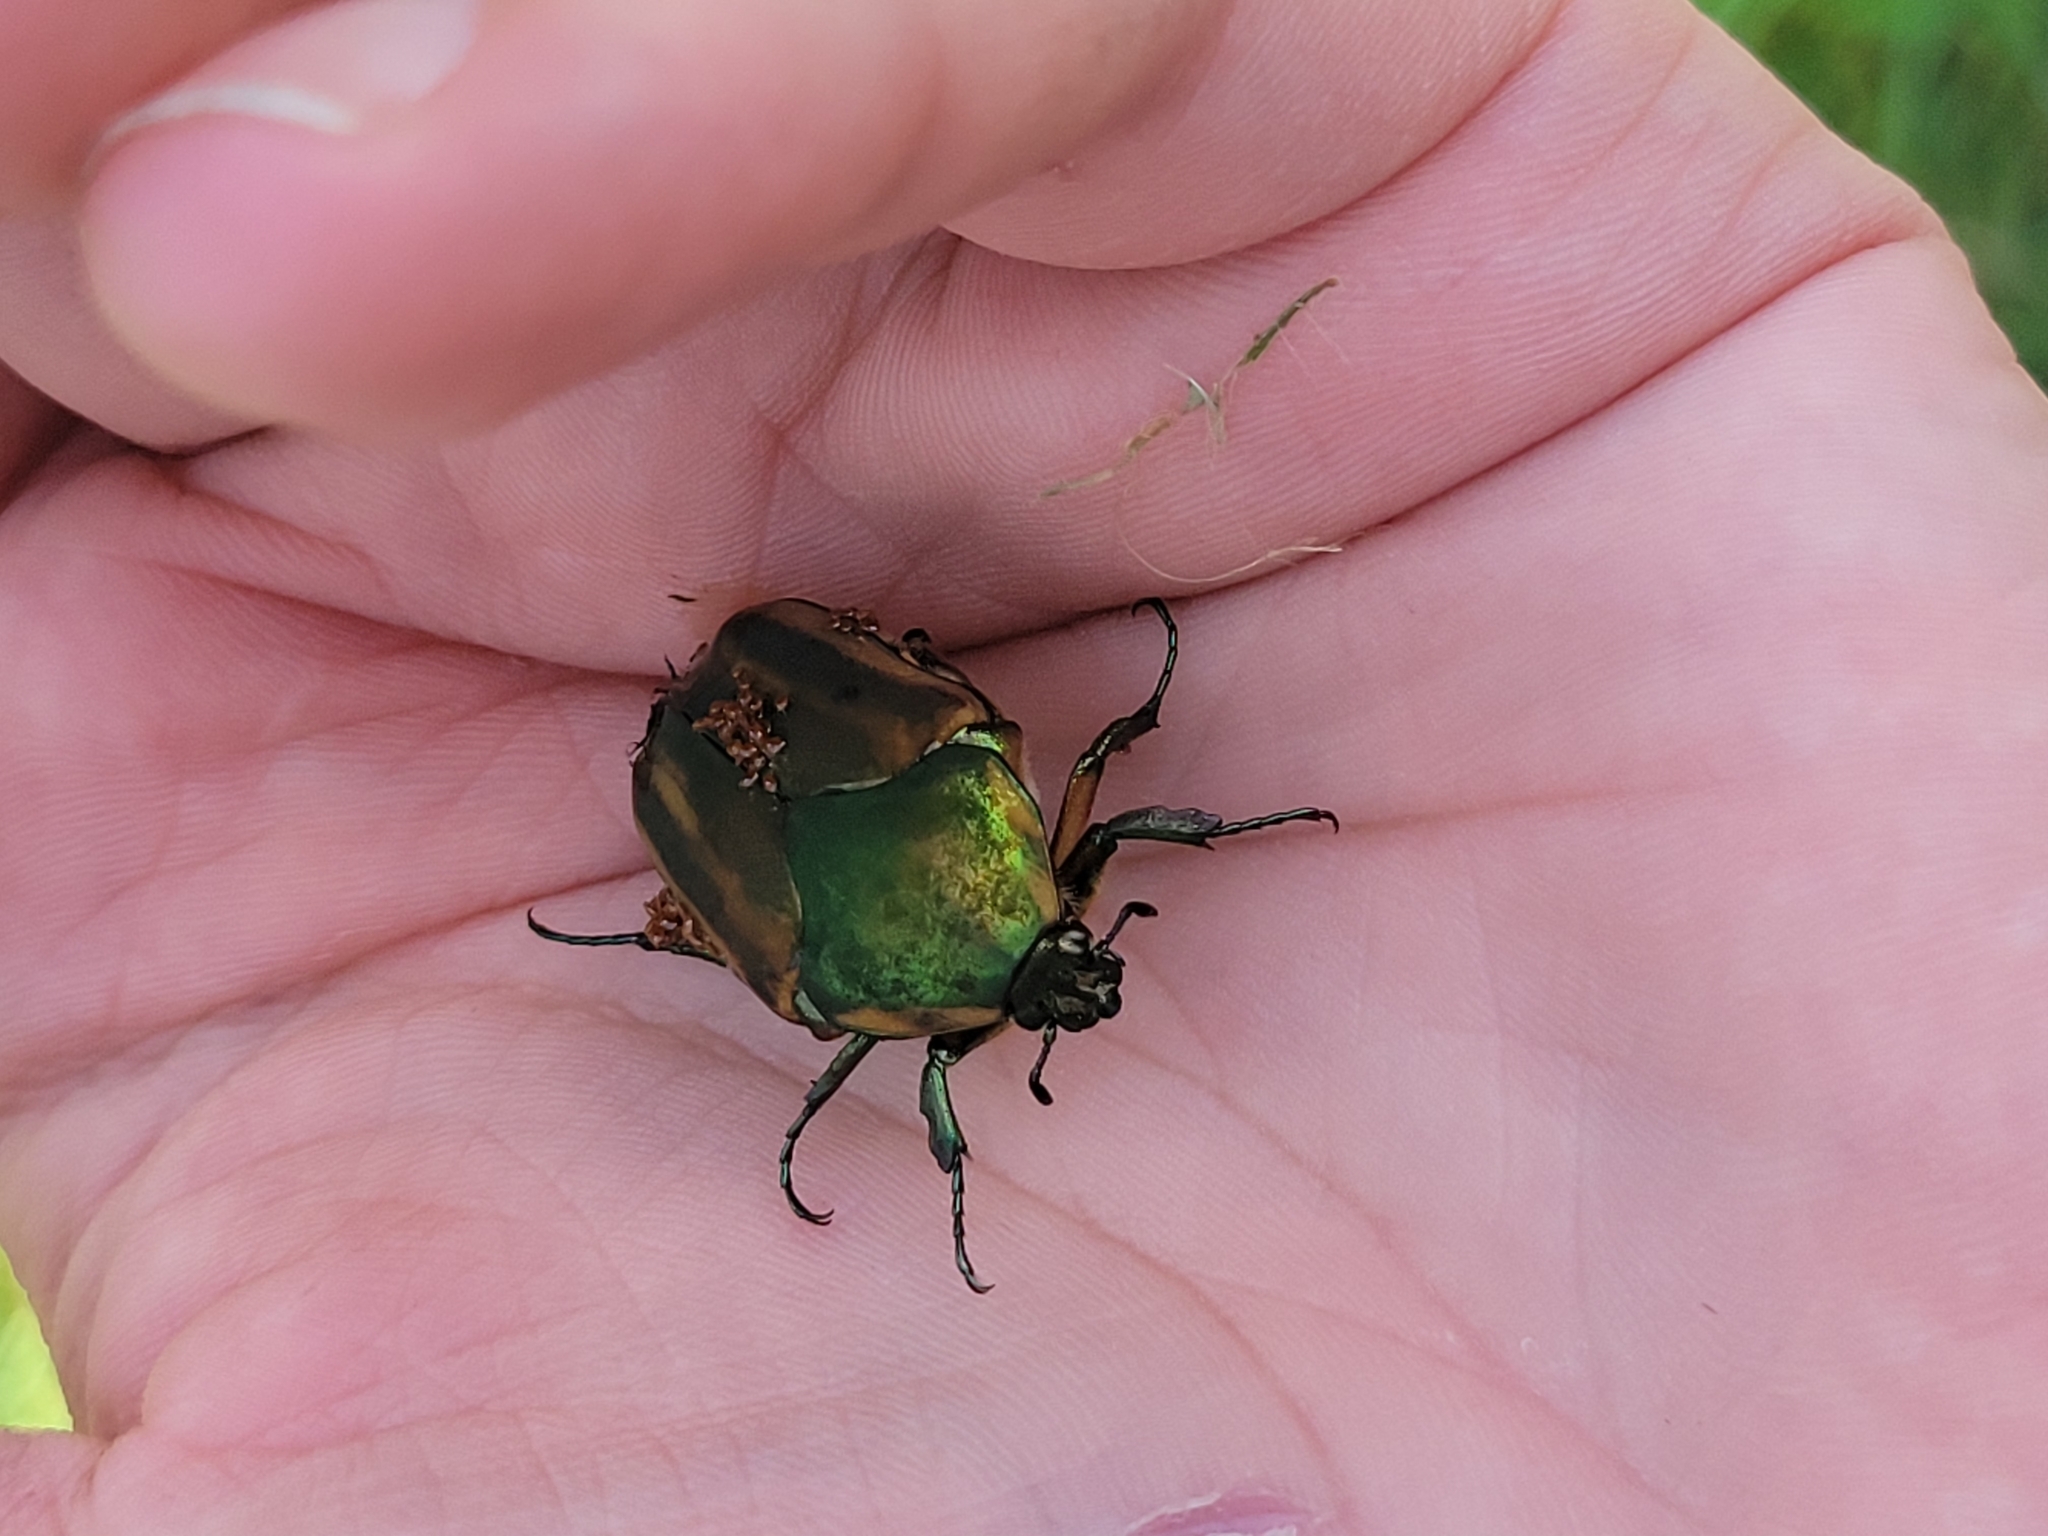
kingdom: Animalia
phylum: Arthropoda
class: Insecta
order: Coleoptera
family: Scarabaeidae
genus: Cotinis
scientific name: Cotinis nitida
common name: Common green june beetle
